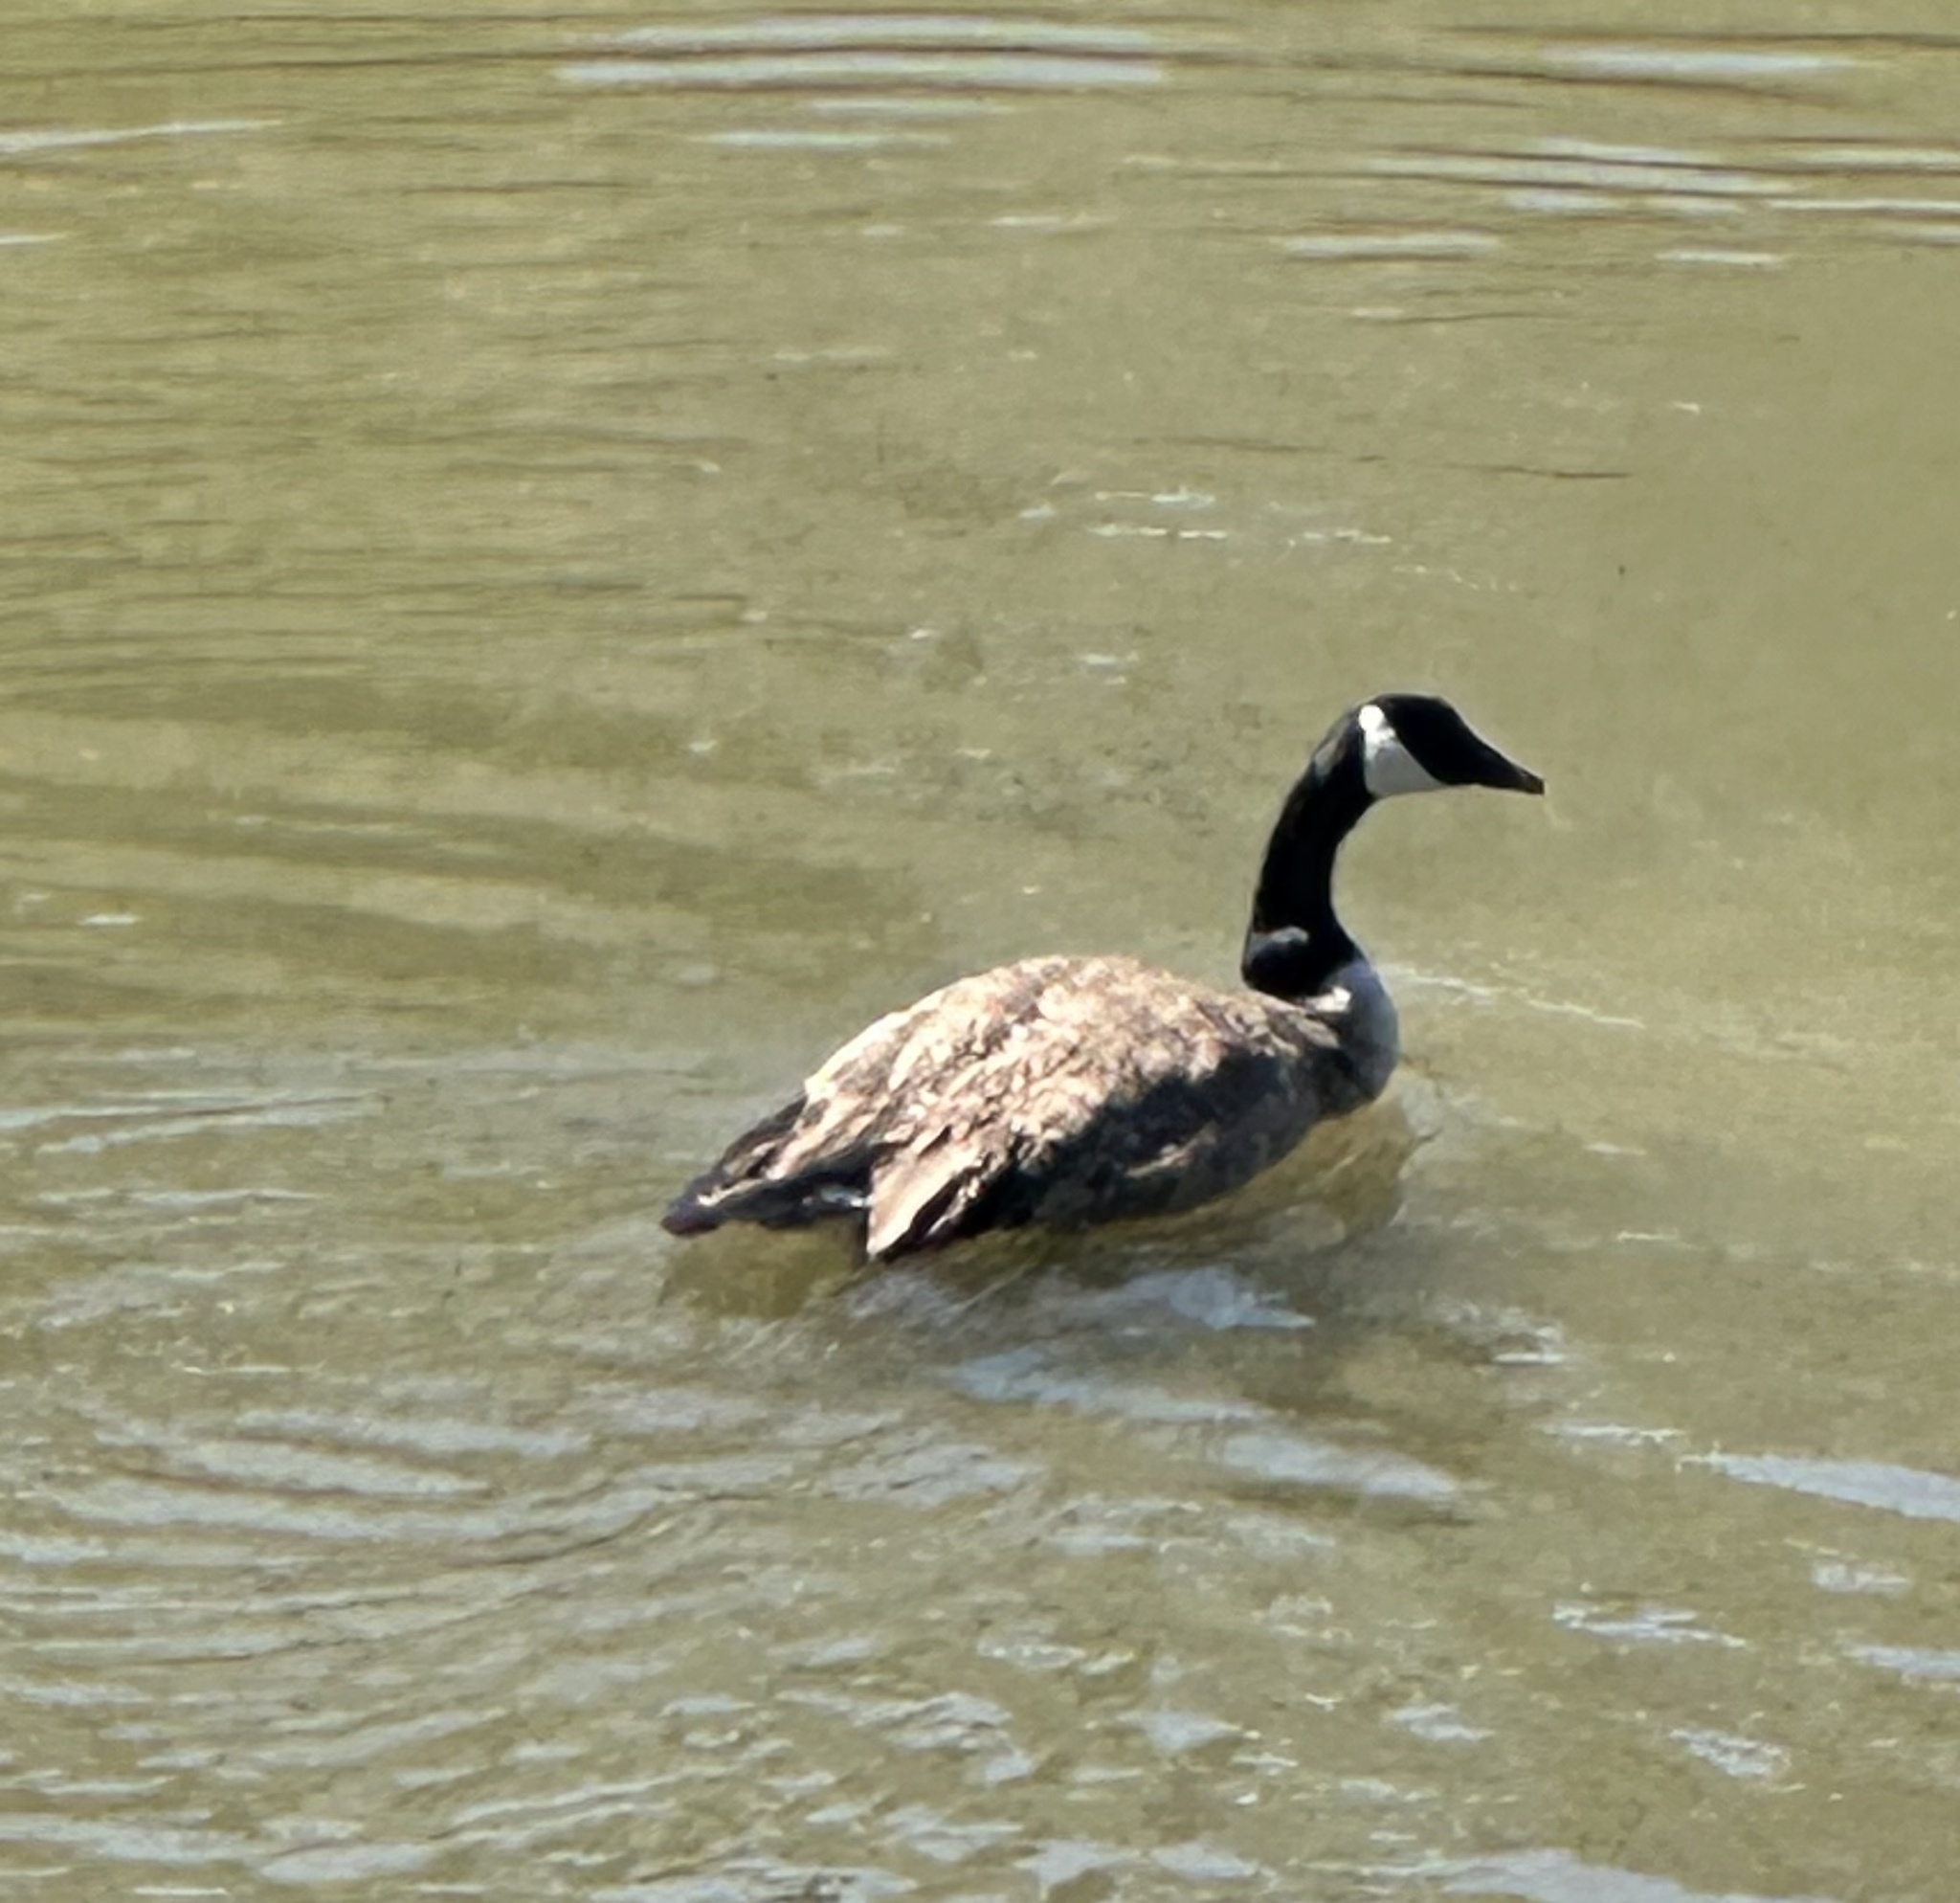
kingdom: Animalia
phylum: Chordata
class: Aves
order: Anseriformes
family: Anatidae
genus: Branta
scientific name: Branta canadensis
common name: Canada goose
